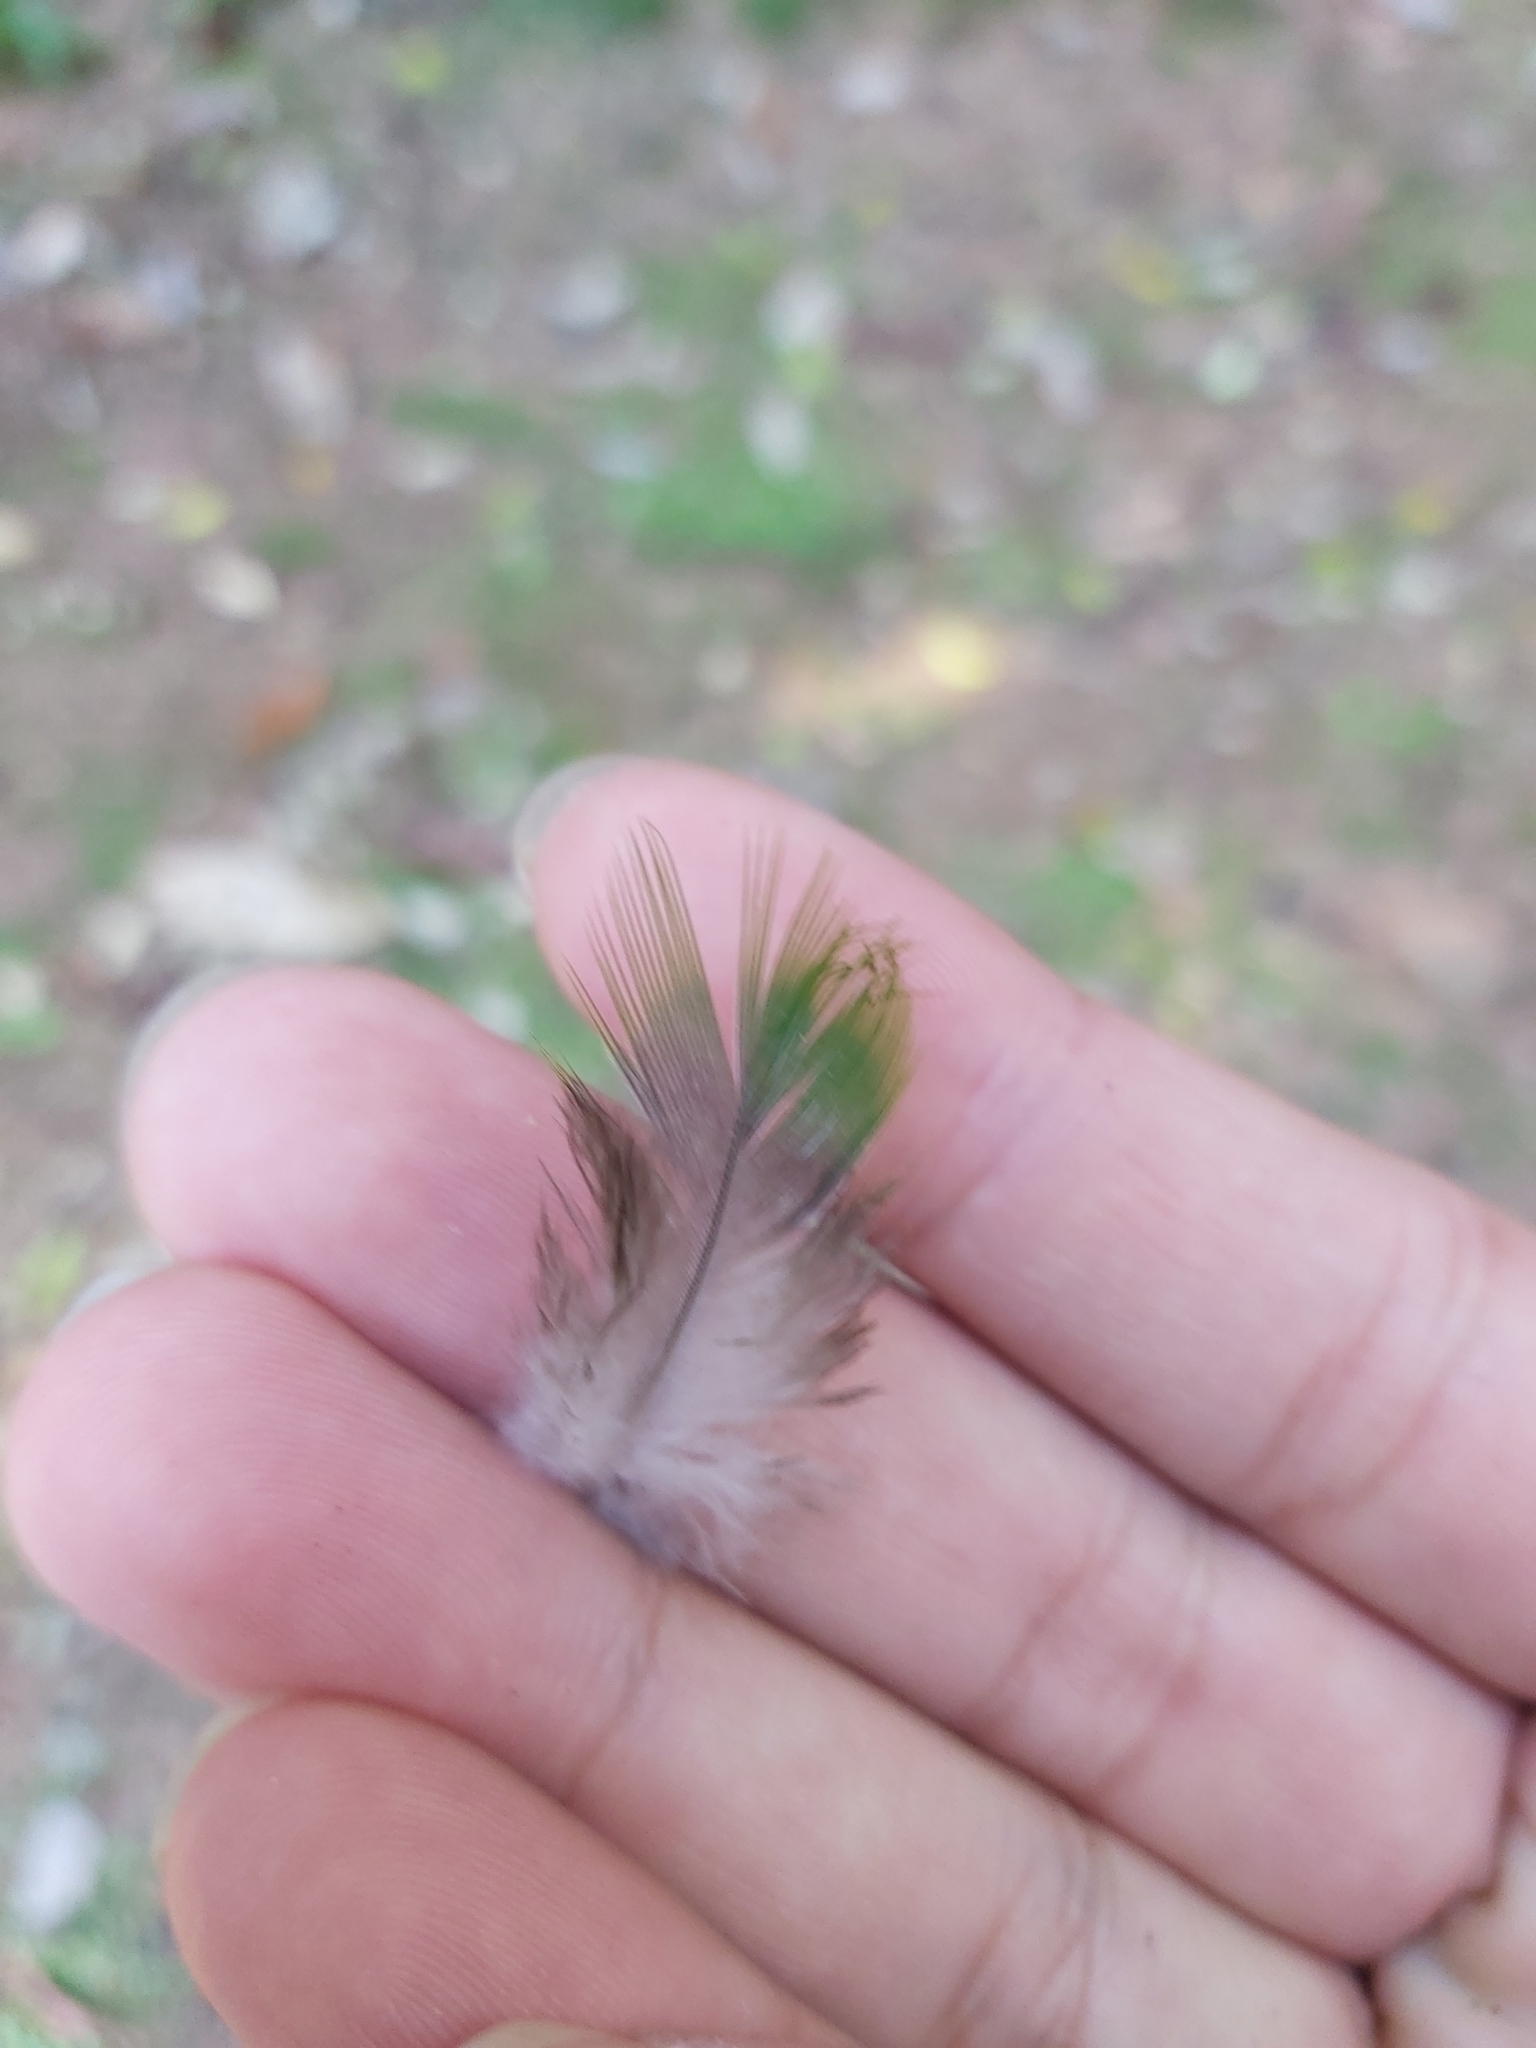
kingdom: Animalia
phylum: Chordata
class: Aves
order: Columbiformes
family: Columbidae
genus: Ptilinopus
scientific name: Ptilinopus magnificus
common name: Wompoo fruit dove
